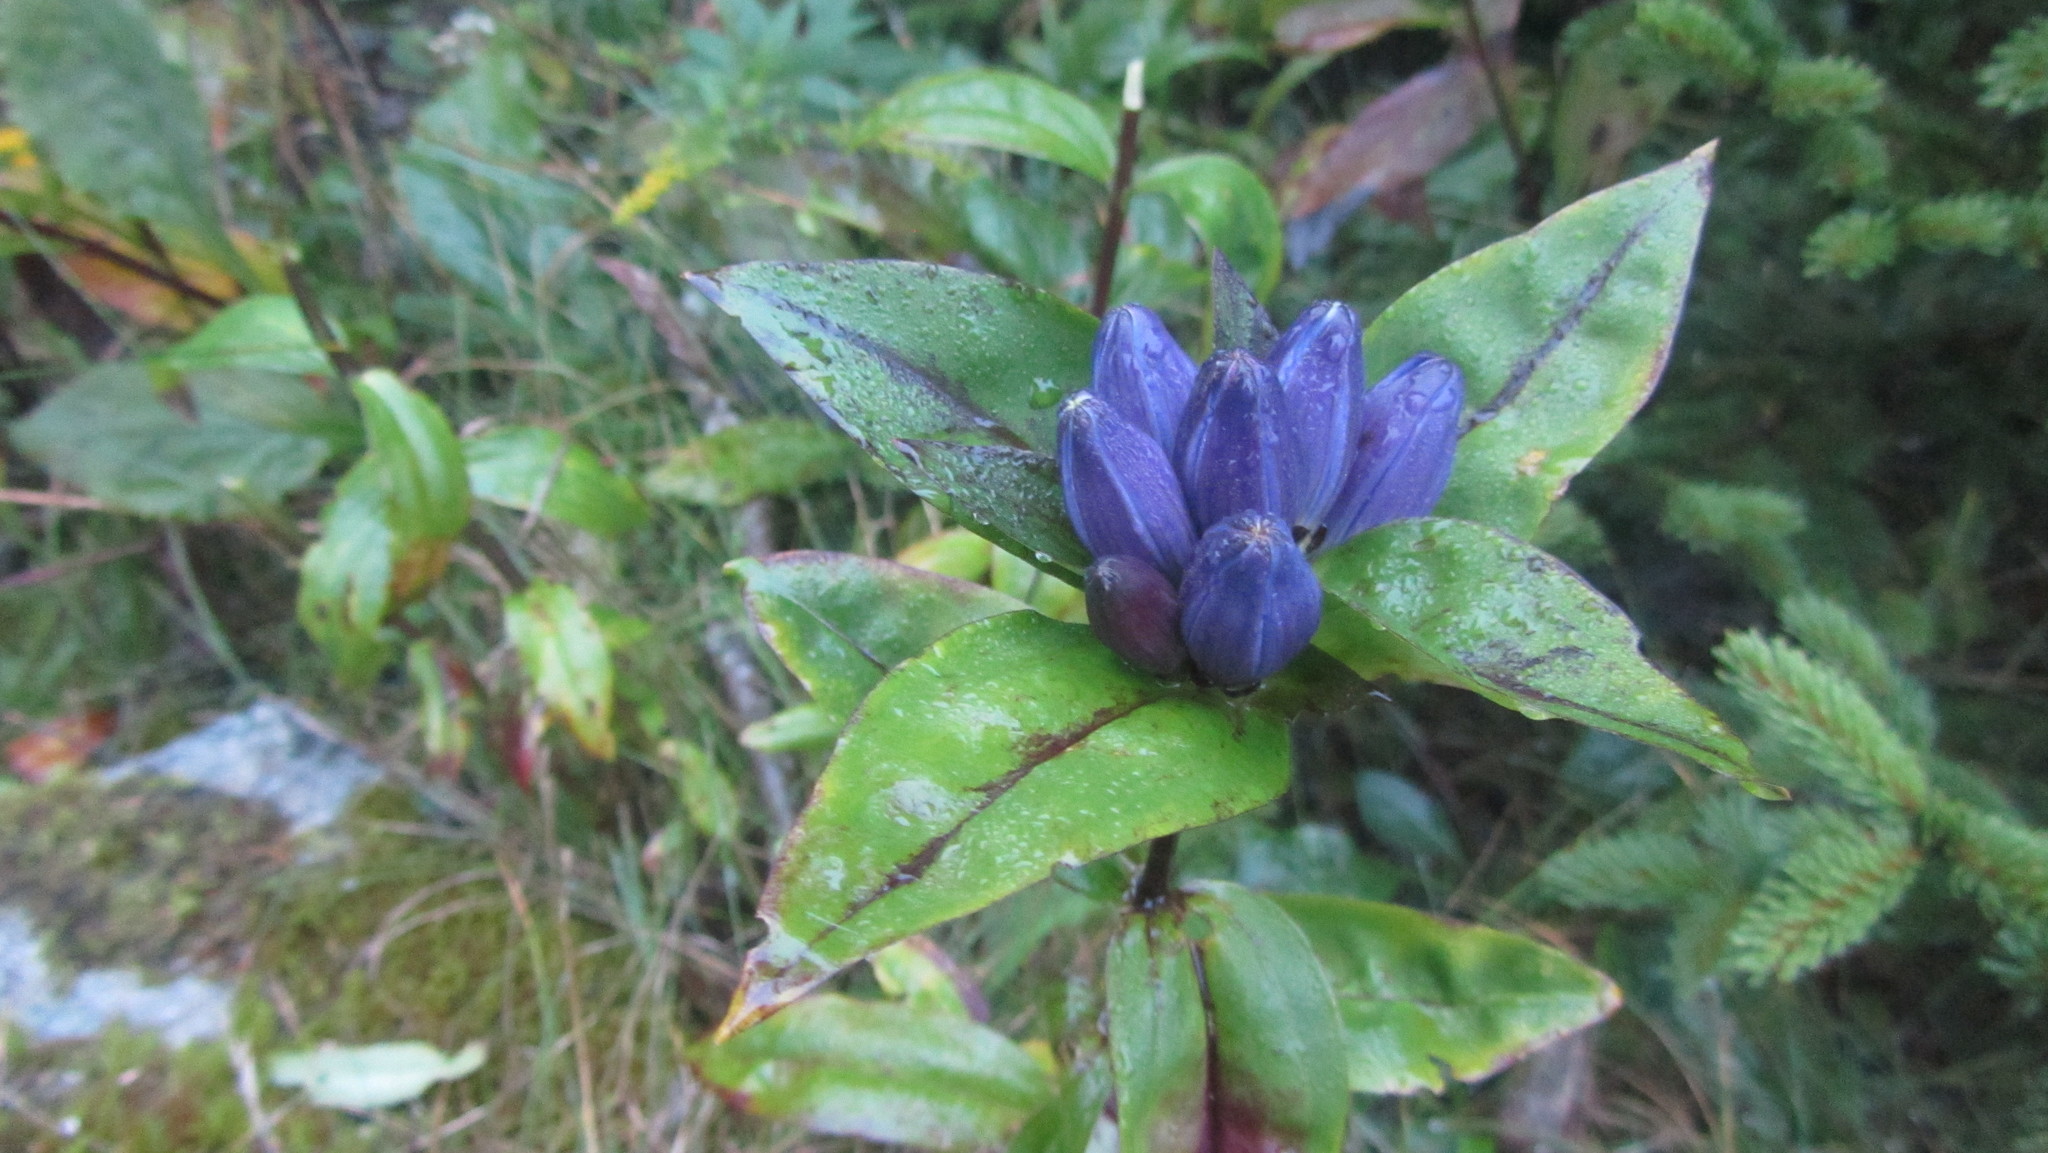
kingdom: Plantae
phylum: Tracheophyta
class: Magnoliopsida
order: Gentianales
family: Gentianaceae
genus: Gentiana
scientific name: Gentiana clausa
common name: Blind gentian
